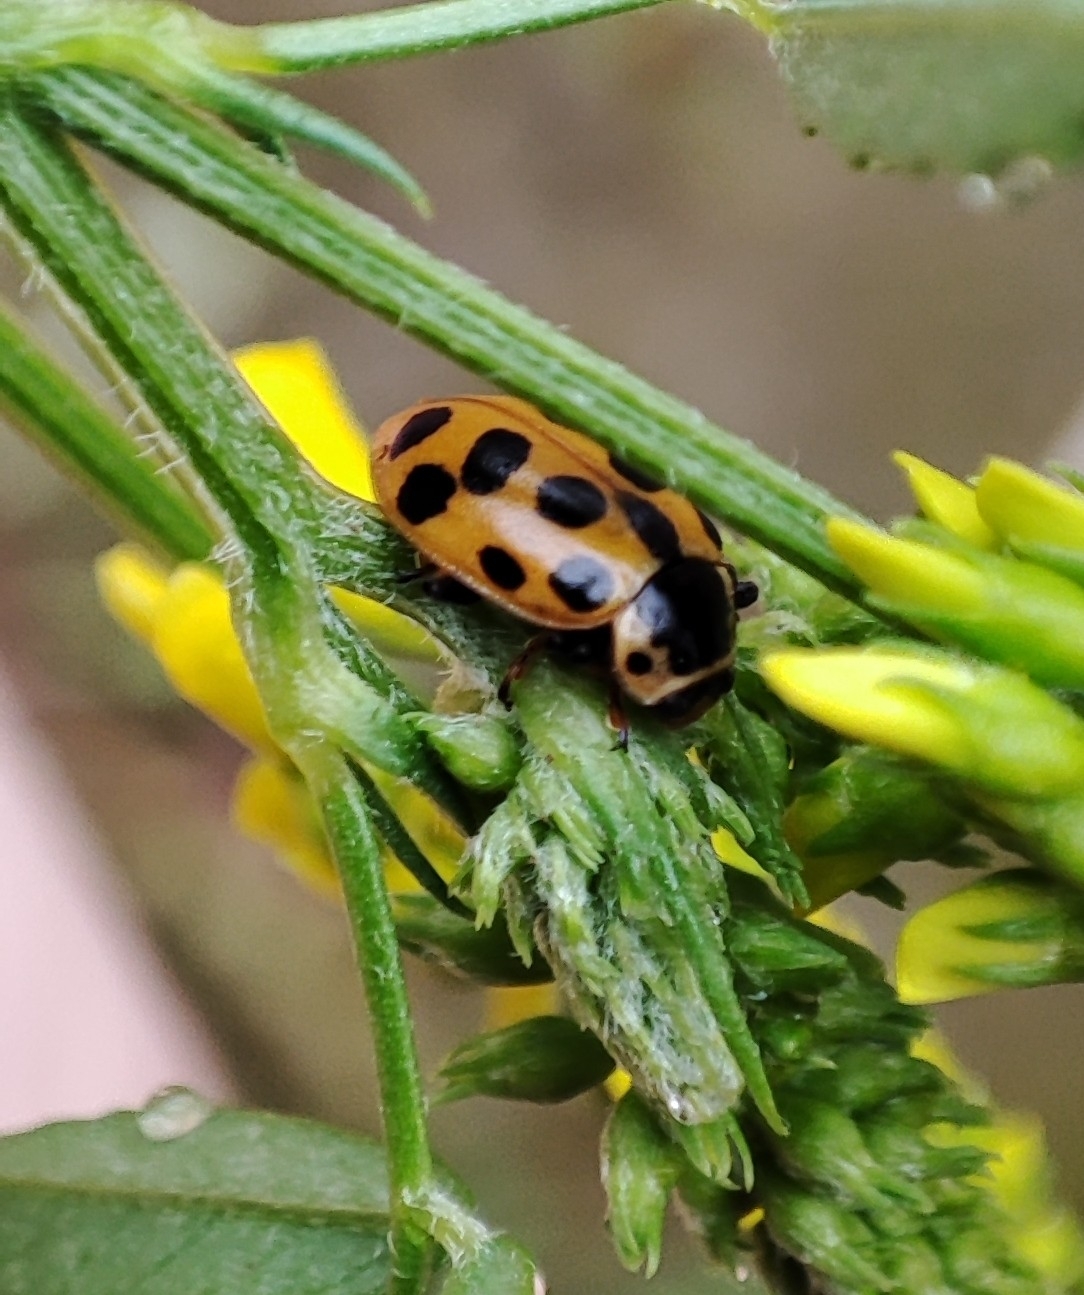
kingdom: Animalia
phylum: Arthropoda
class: Insecta
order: Coleoptera
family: Coccinellidae
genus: Hippodamia
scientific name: Hippodamia tredecimpunctata
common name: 13-spot ladybird
